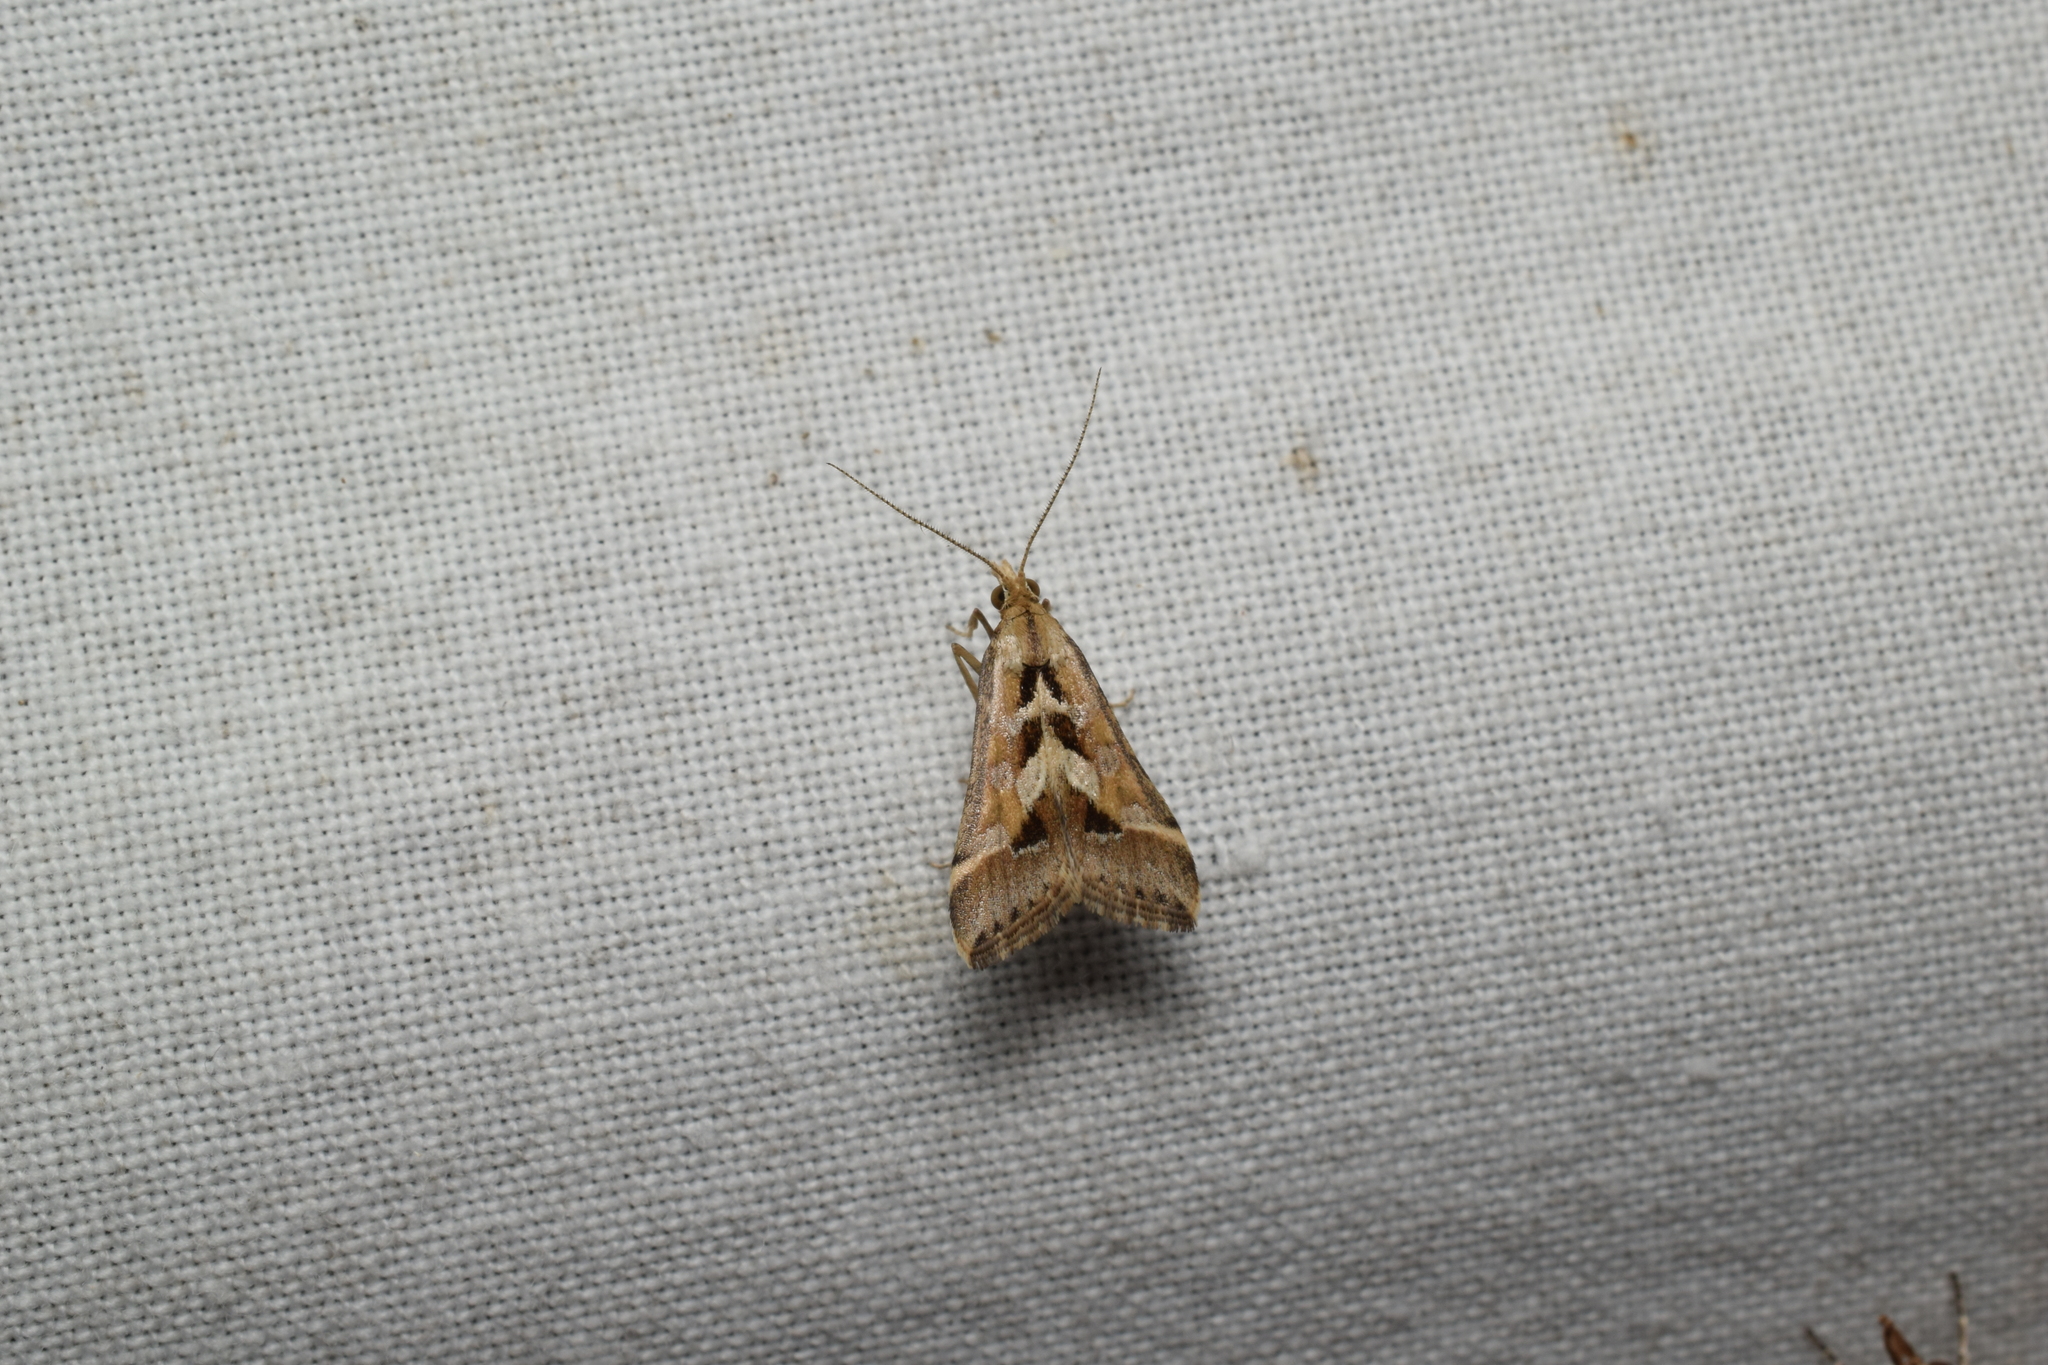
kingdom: Animalia
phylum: Arthropoda
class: Insecta
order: Lepidoptera
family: Crambidae
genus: Diasemia
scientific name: Diasemia accalis
